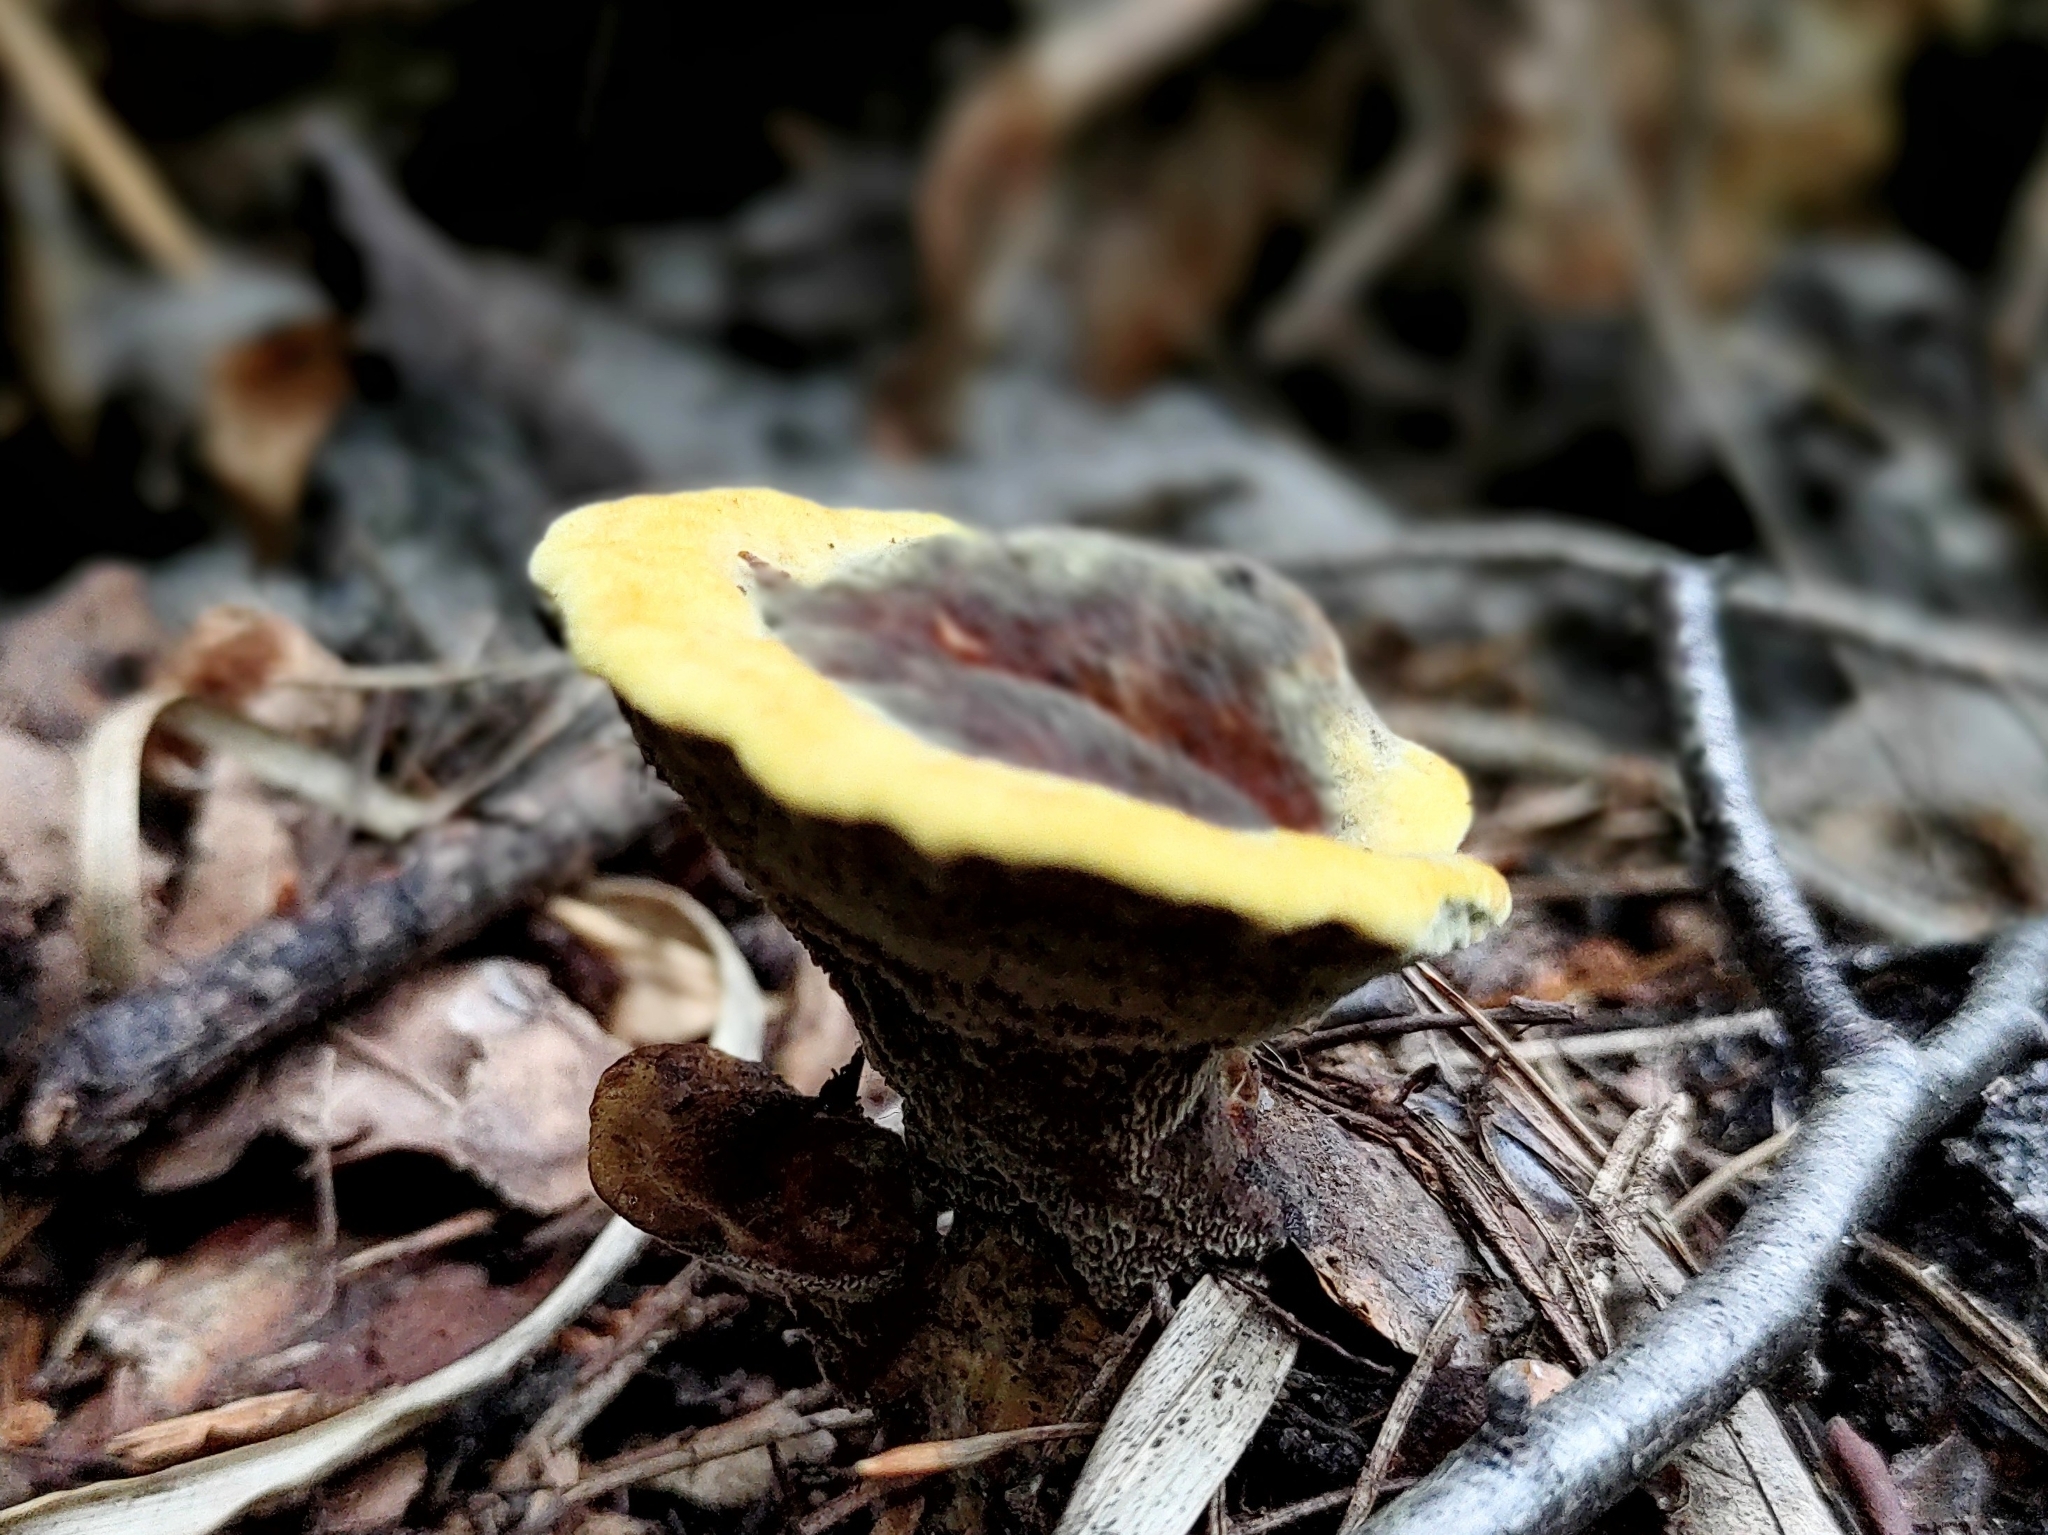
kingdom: Fungi
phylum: Basidiomycota
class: Agaricomycetes
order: Polyporales
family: Laetiporaceae
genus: Phaeolus
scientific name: Phaeolus schweinitzii
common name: Dyer's mazegill
